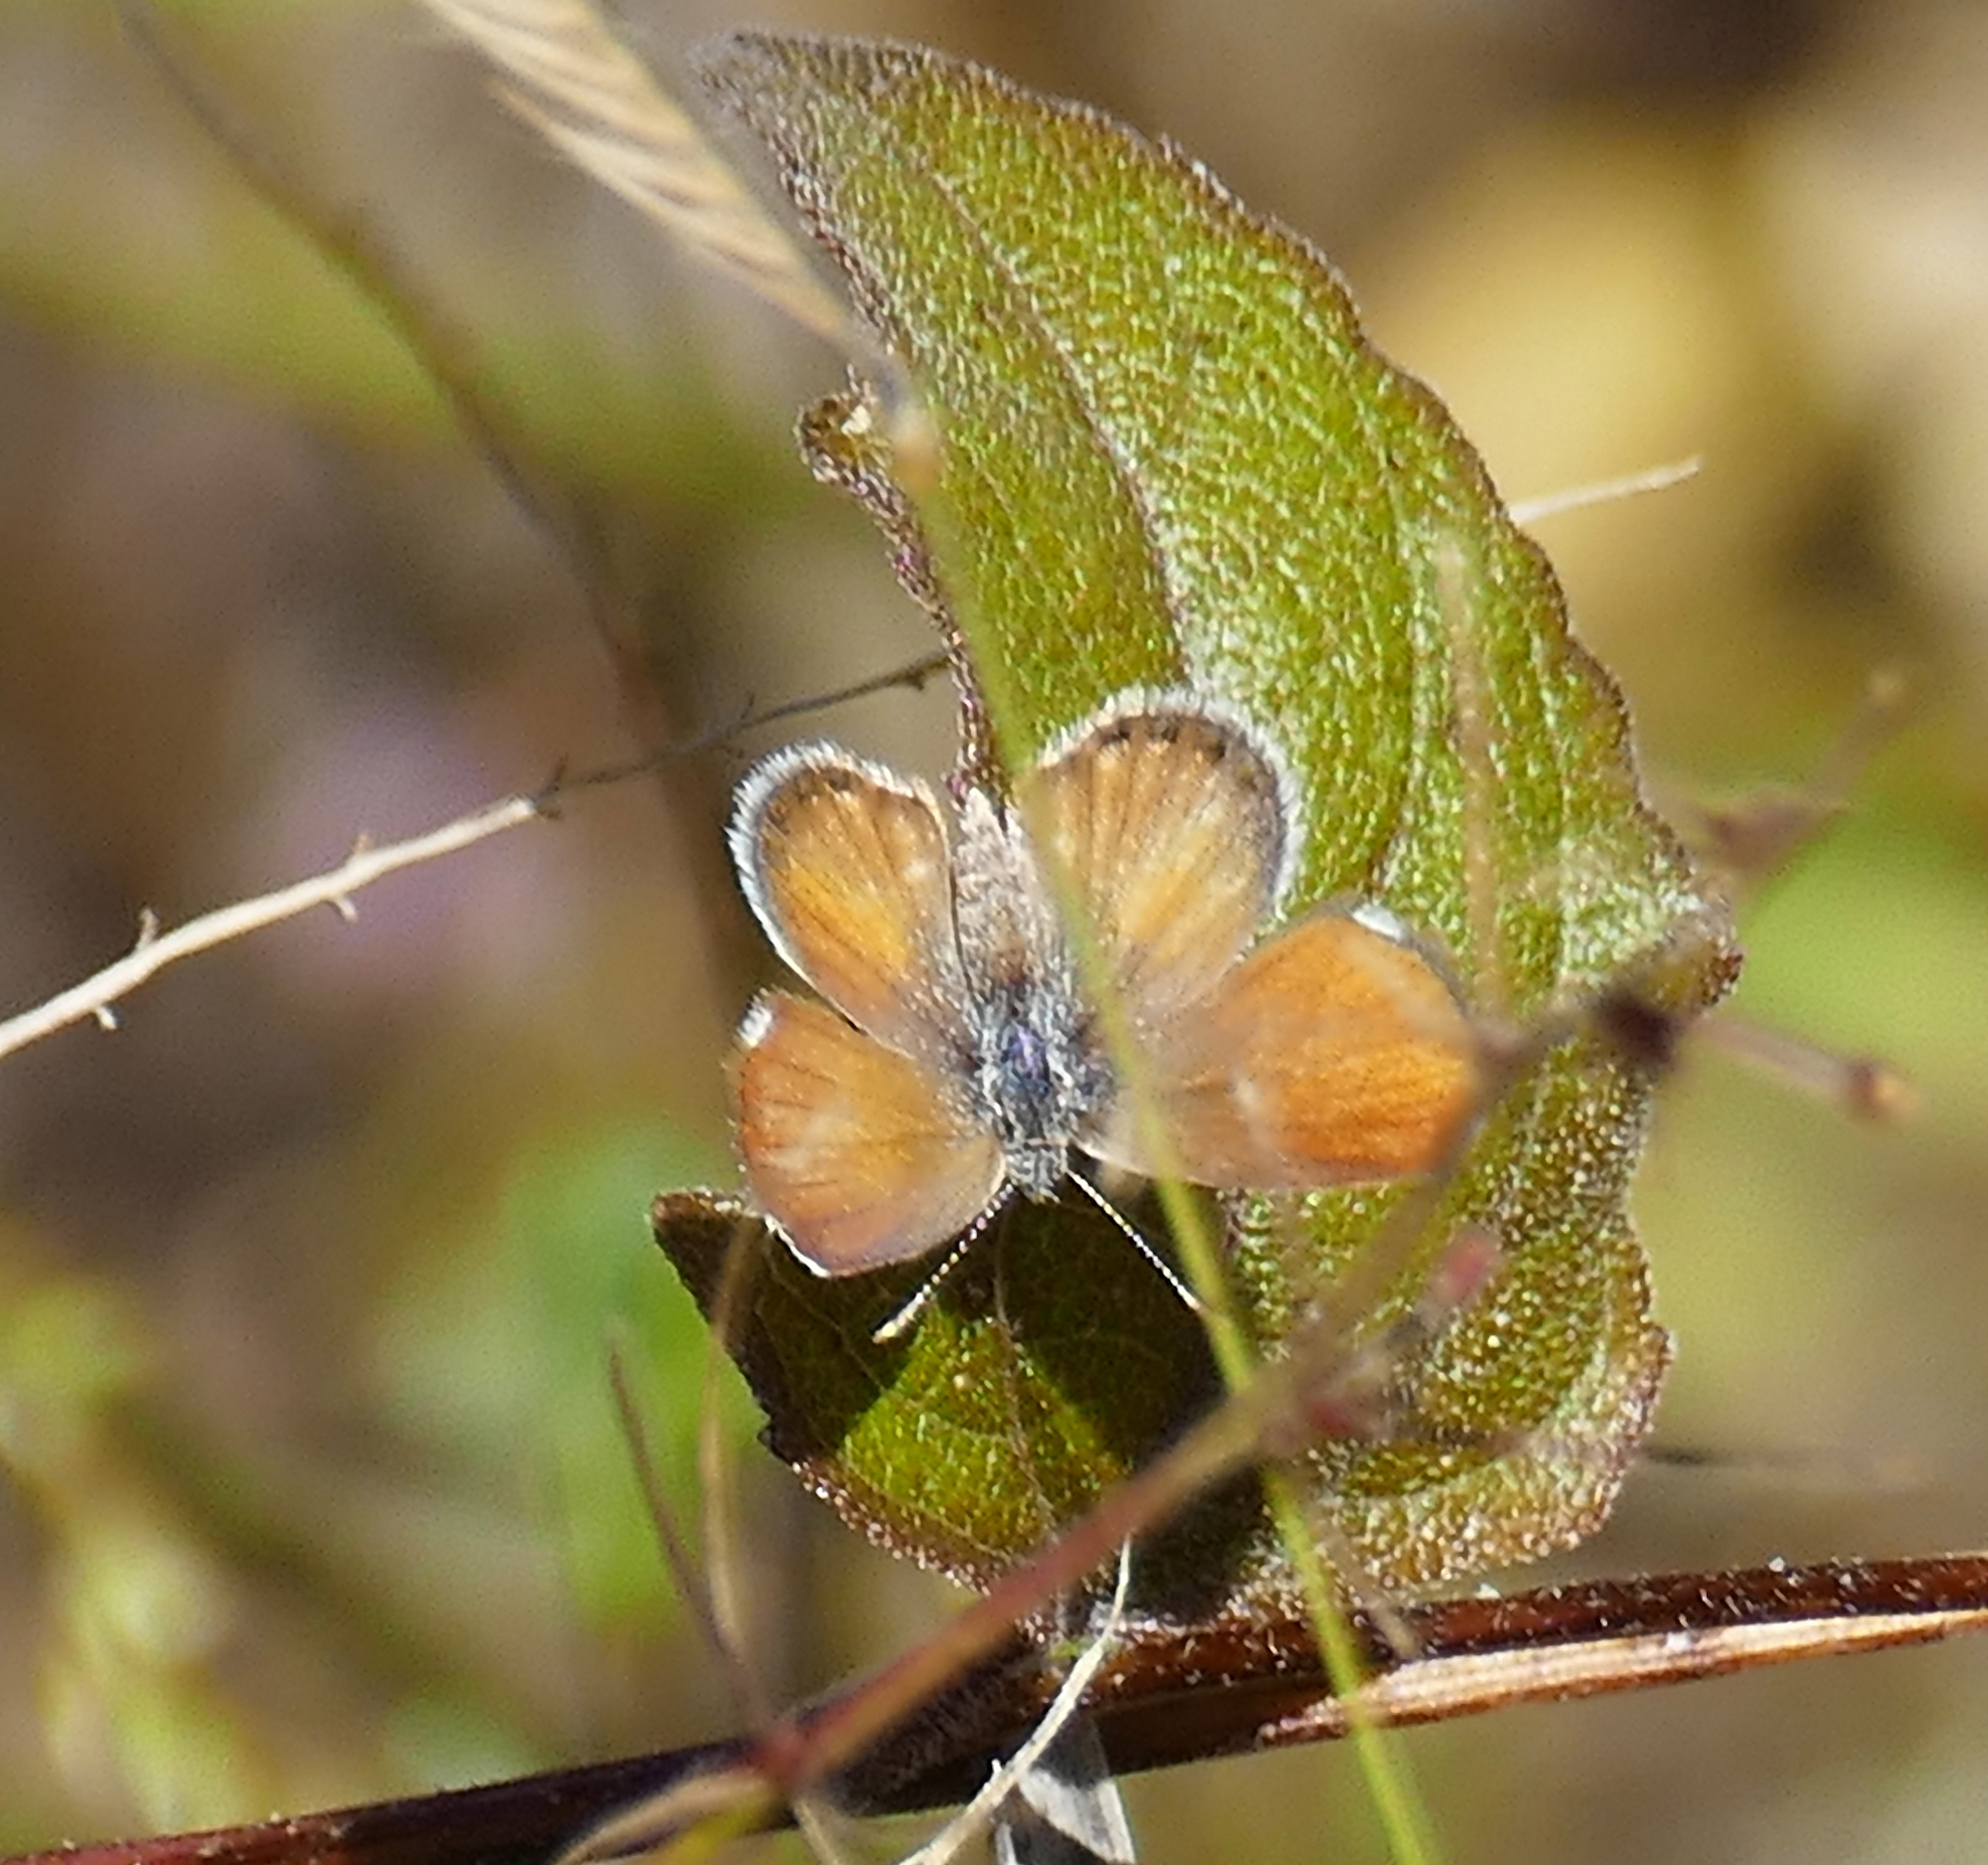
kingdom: Animalia
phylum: Arthropoda
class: Insecta
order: Lepidoptera
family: Lycaenidae
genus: Brephidium
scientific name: Brephidium exilis
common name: Pygmy blue
